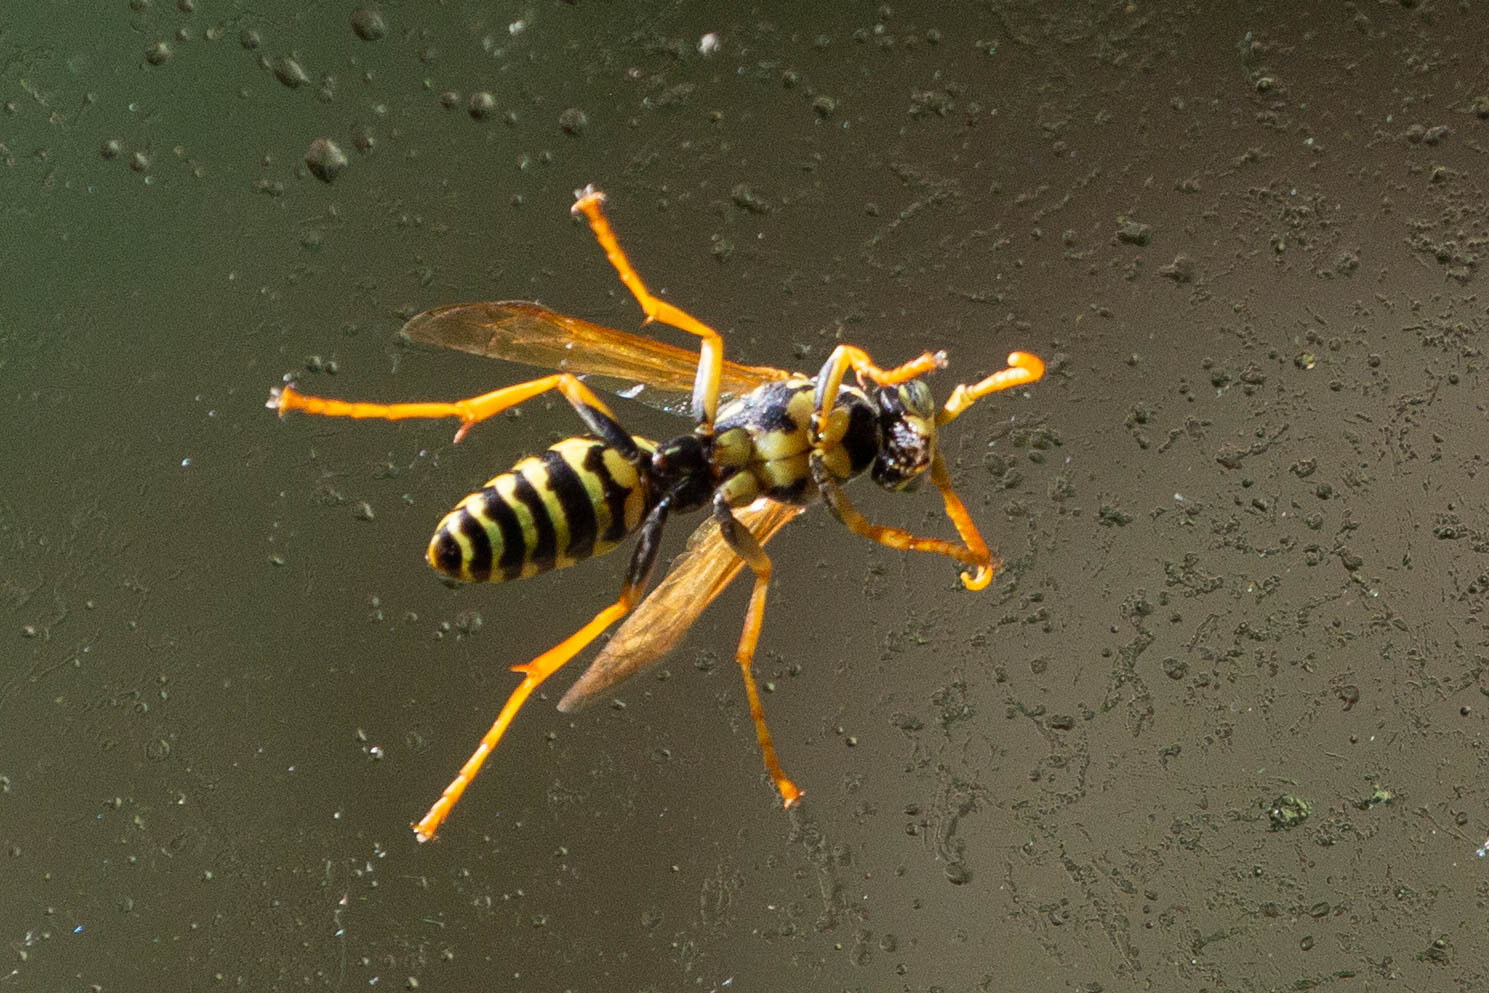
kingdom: Animalia
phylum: Arthropoda
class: Insecta
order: Hymenoptera
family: Eumenidae
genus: Polistes
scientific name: Polistes dominula
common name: Paper wasp
